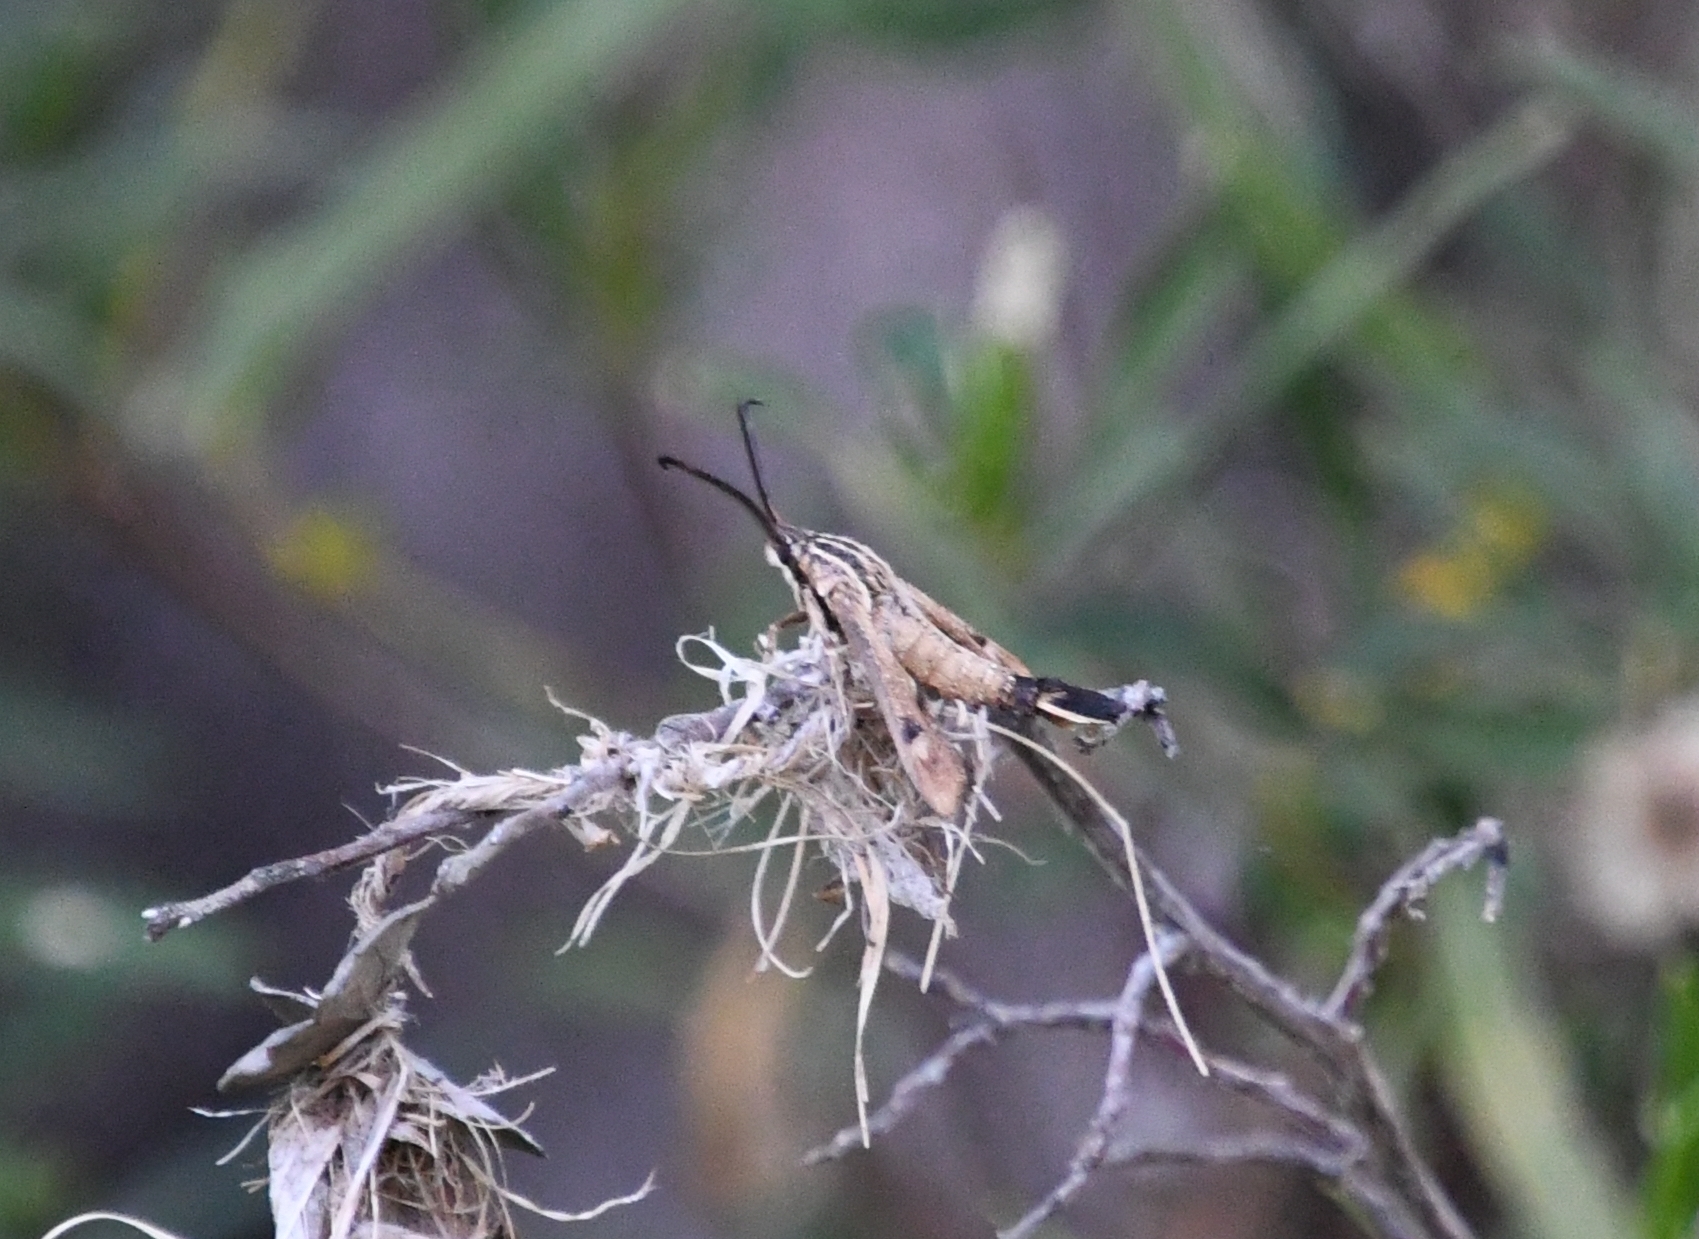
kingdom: Animalia
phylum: Arthropoda
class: Insecta
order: Lepidoptera
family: Sesiidae
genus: Hymenoclea
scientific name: Hymenoclea palmii
